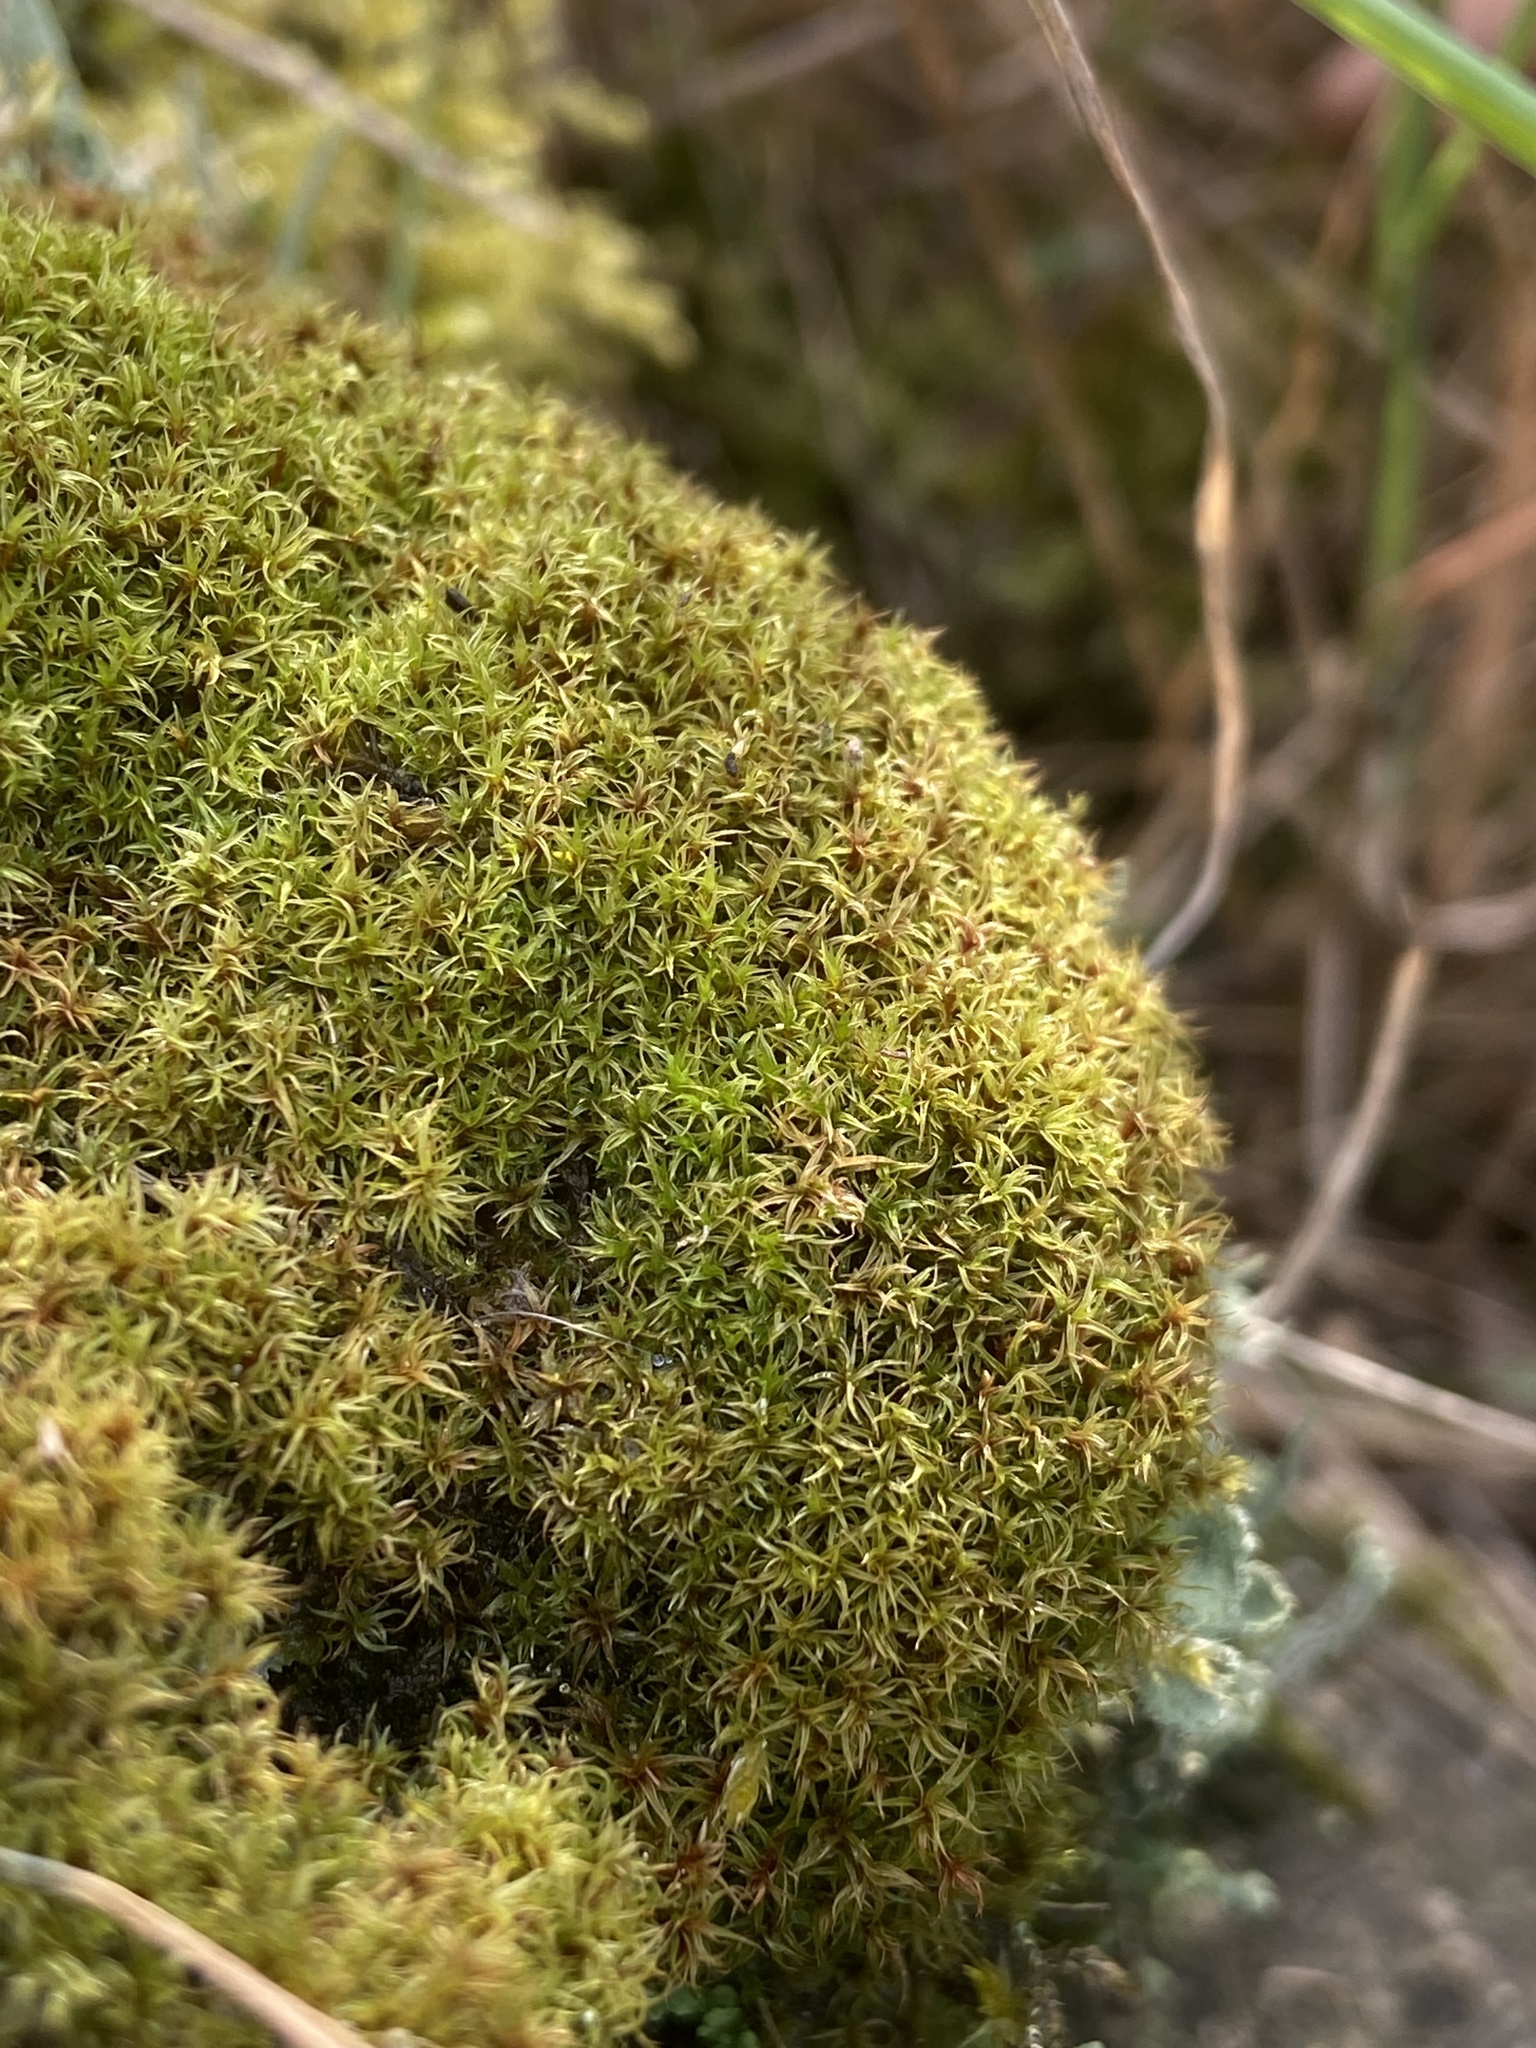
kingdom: Plantae
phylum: Bryophyta
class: Bryopsida
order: Dicranales
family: Ditrichaceae
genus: Ceratodon
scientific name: Ceratodon purpureus
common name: Redshank
